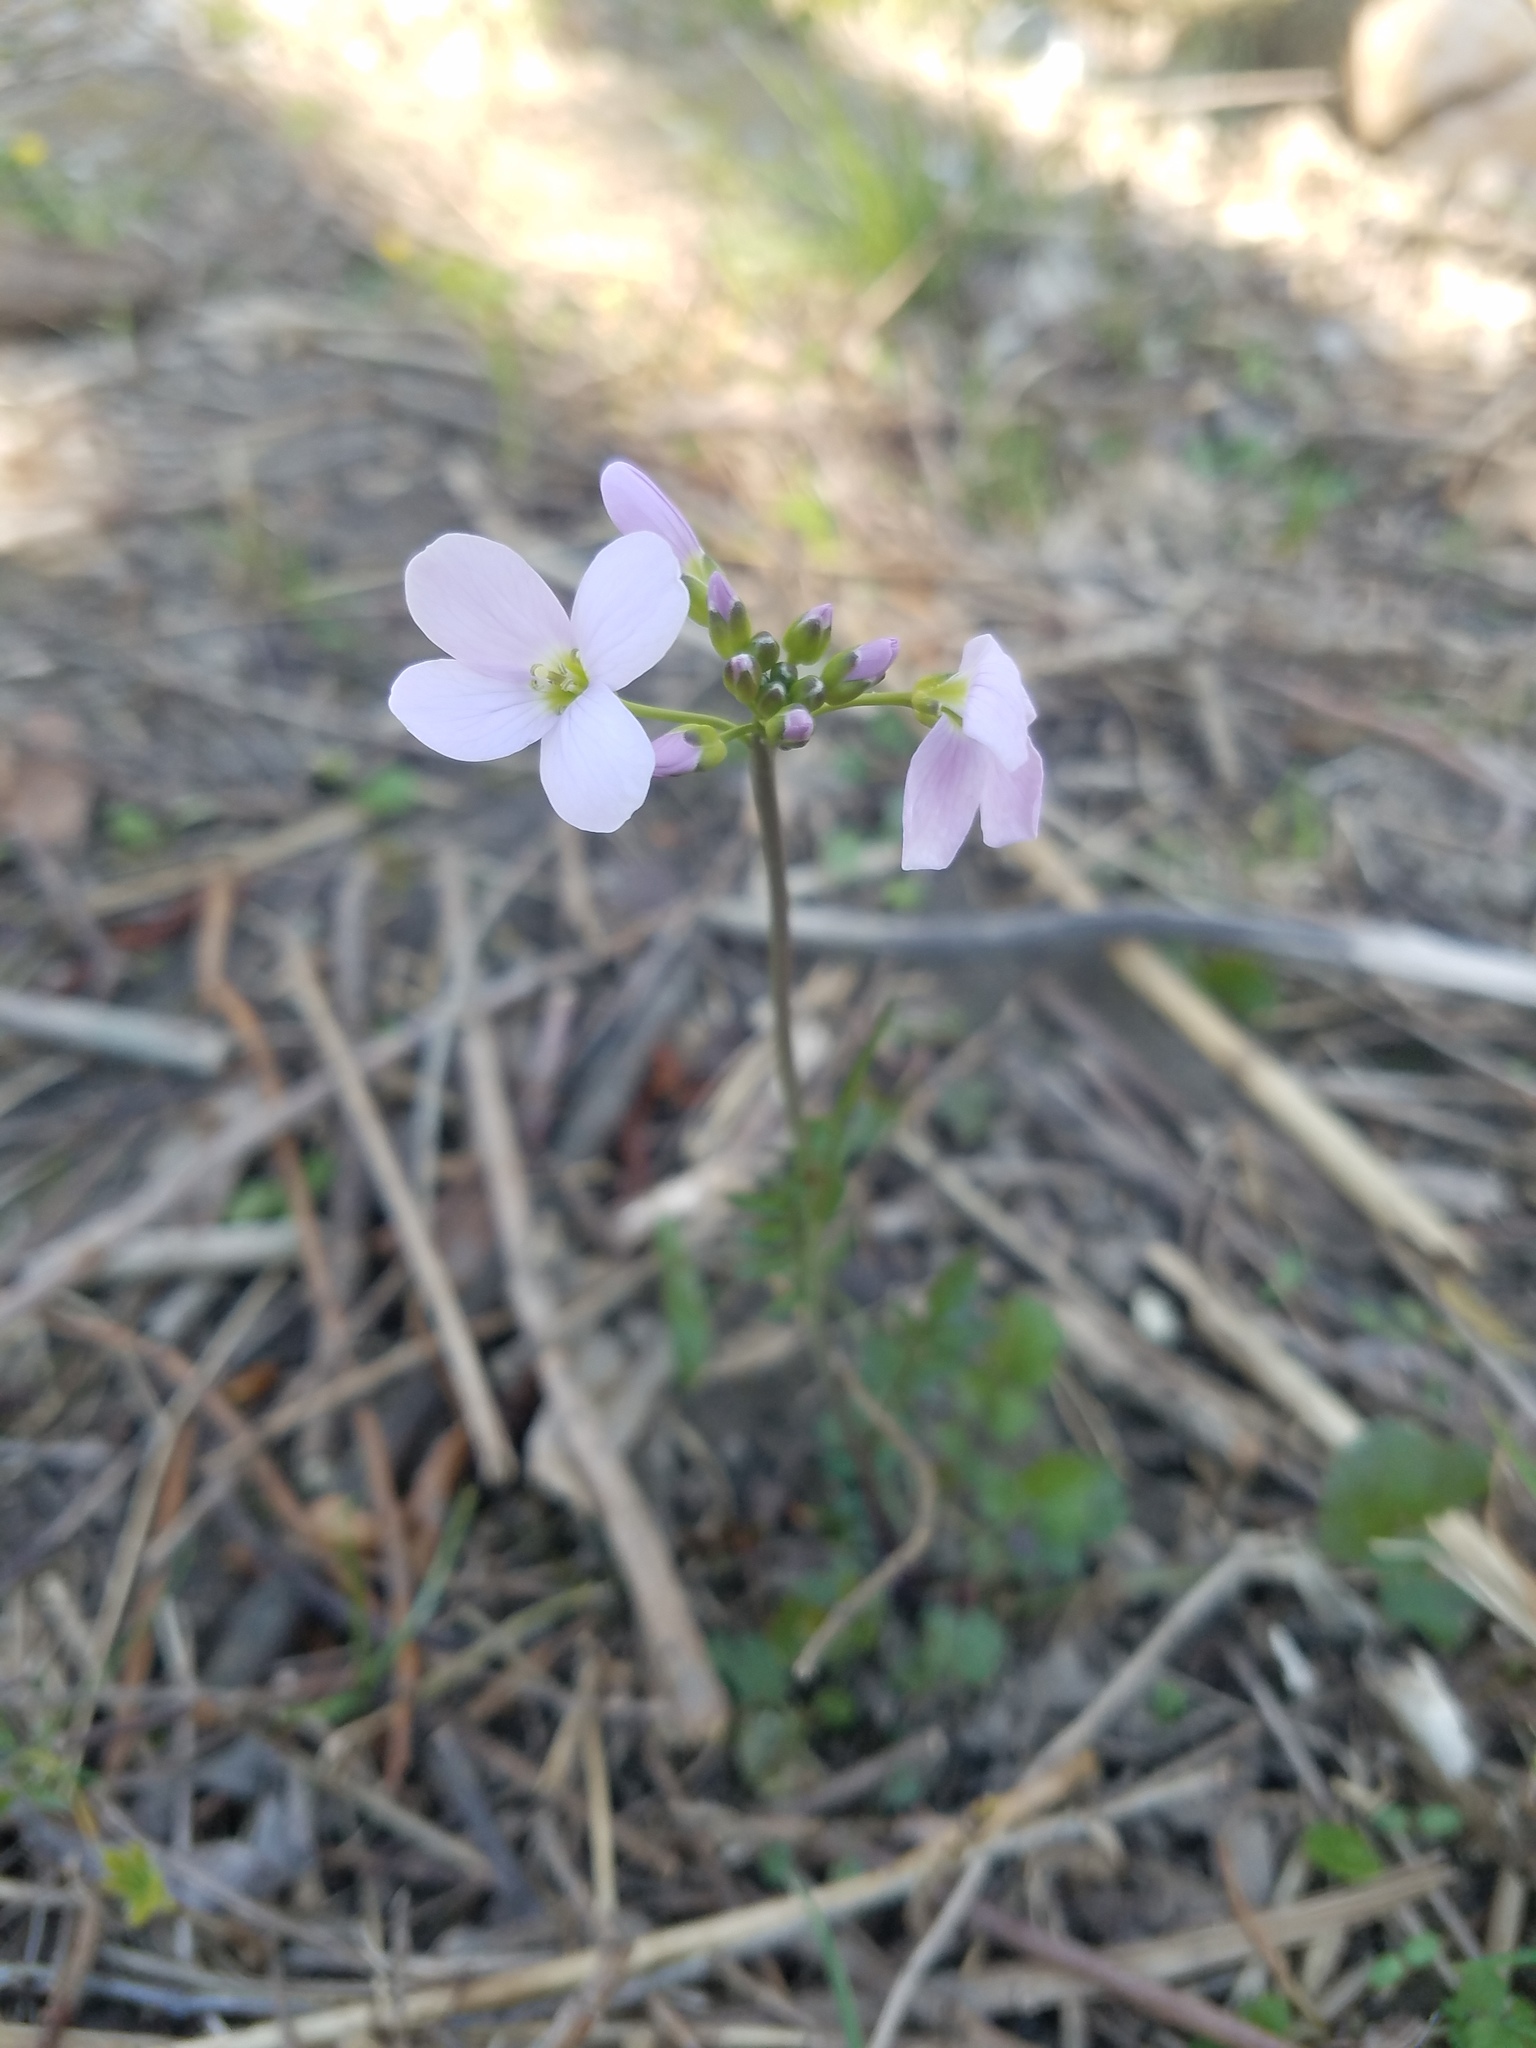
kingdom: Plantae
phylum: Tracheophyta
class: Magnoliopsida
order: Brassicales
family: Brassicaceae
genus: Cardamine
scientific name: Cardamine pratensis
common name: Cuckoo flower
